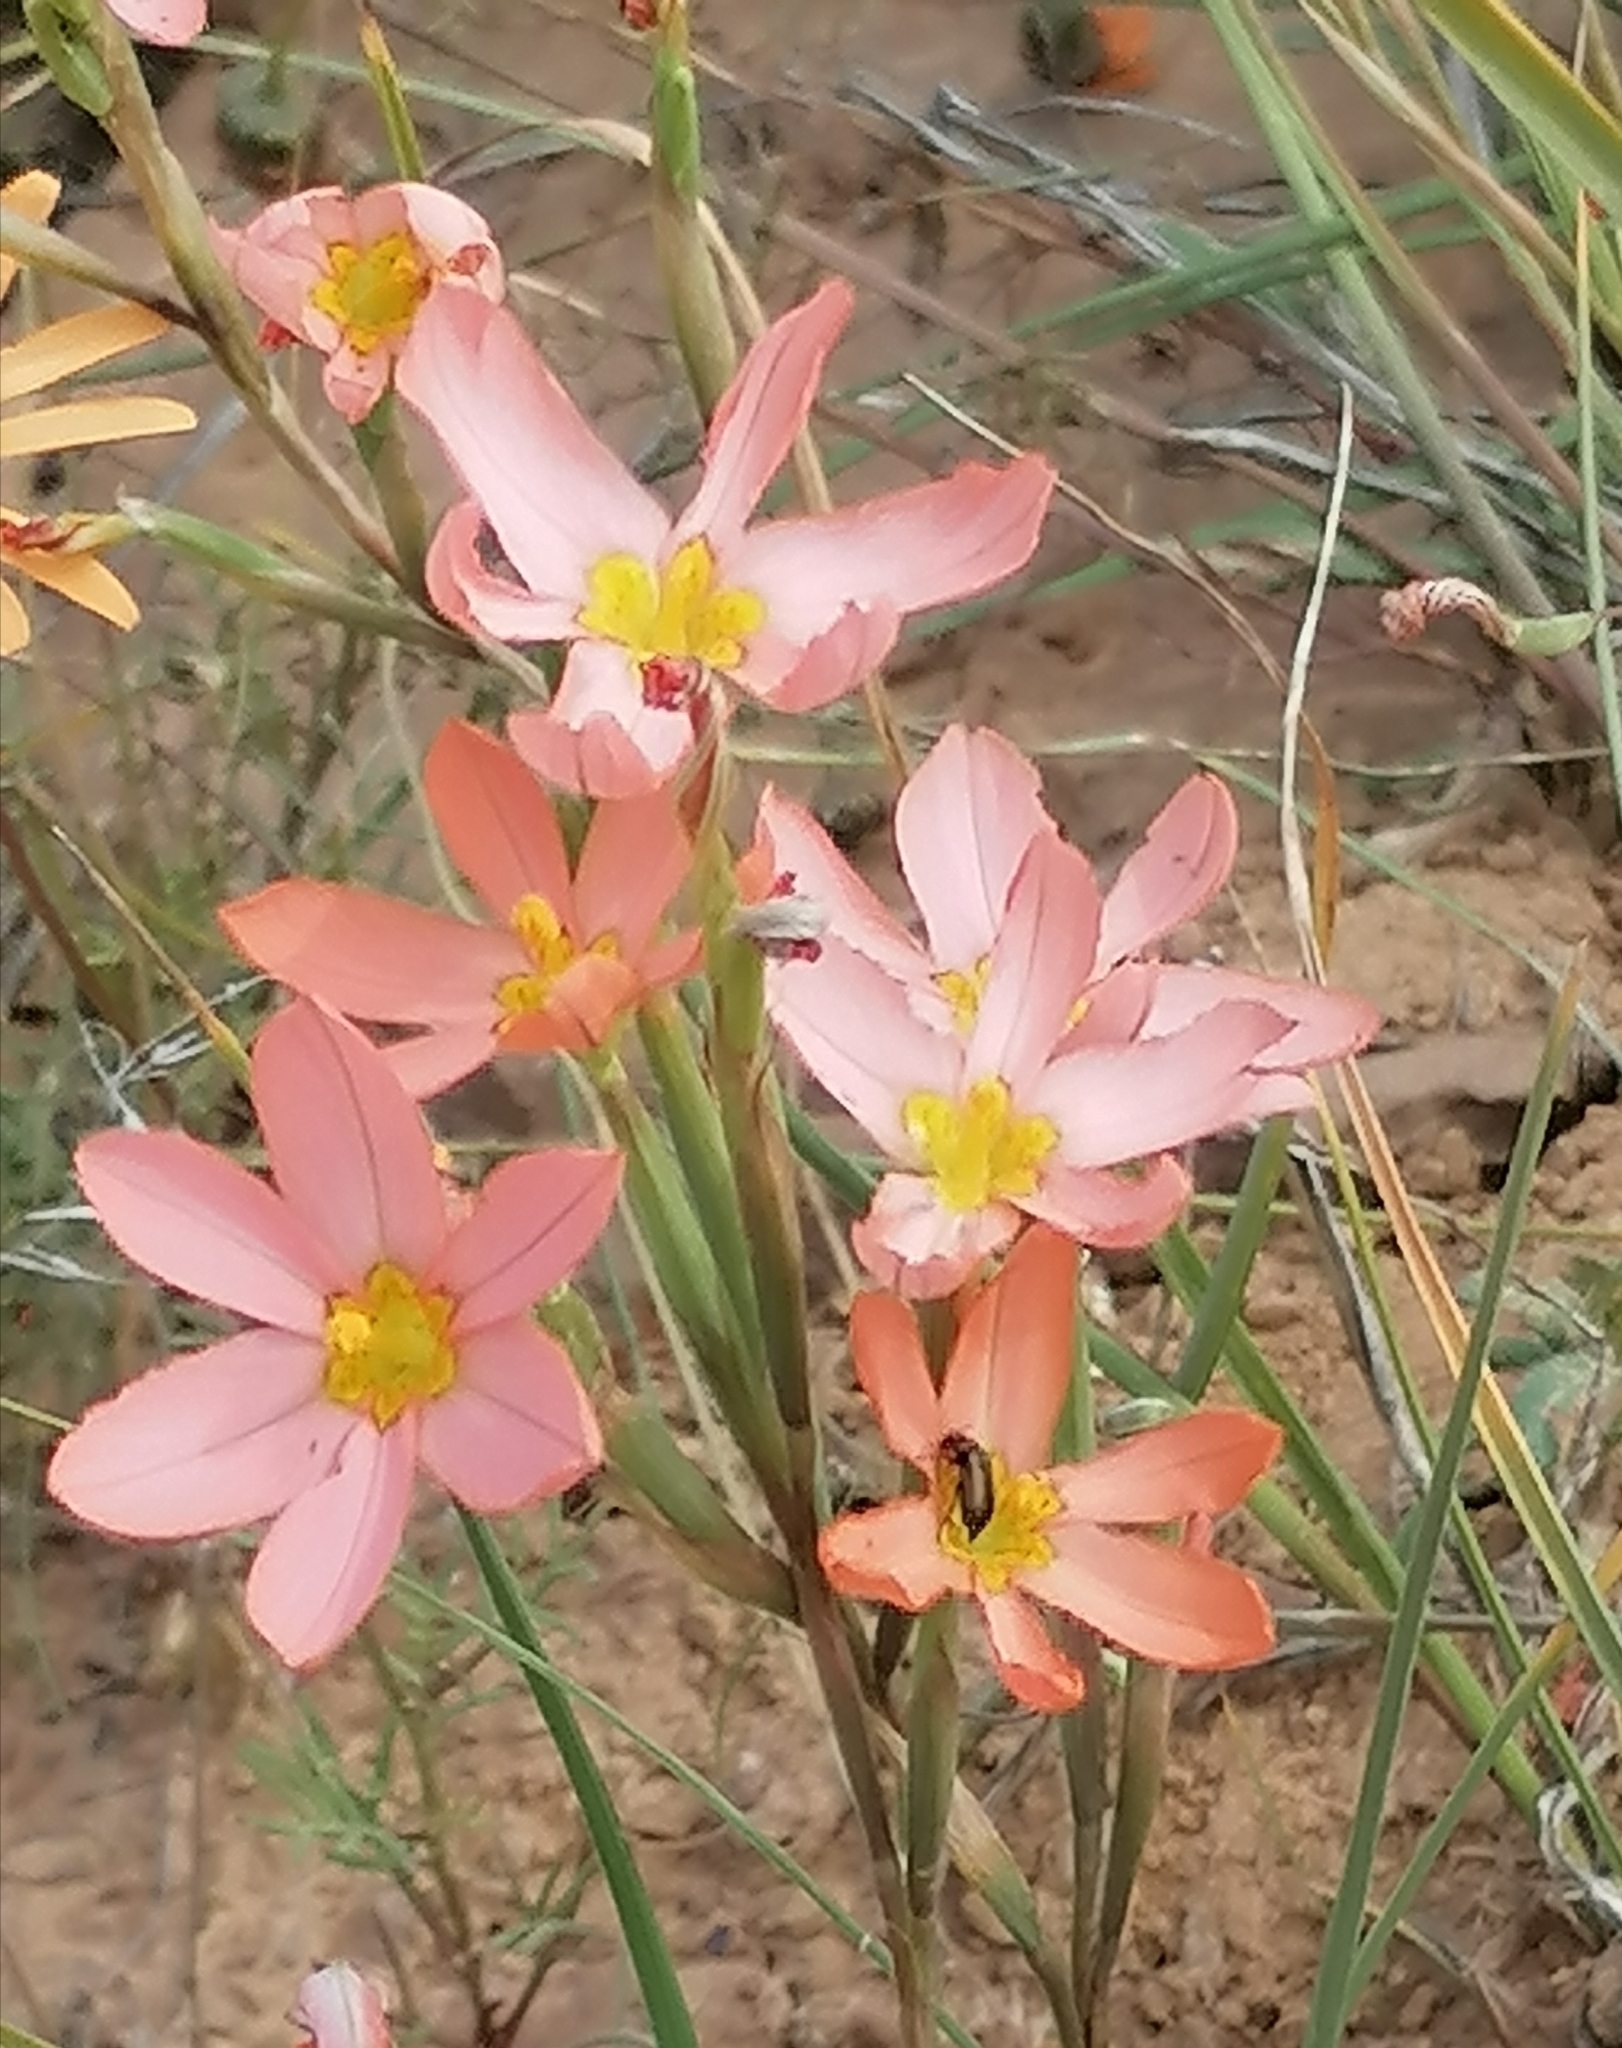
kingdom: Plantae
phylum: Tracheophyta
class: Liliopsida
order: Asparagales
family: Iridaceae
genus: Moraea
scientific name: Moraea miniata
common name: Two-leaf cape-tulip
